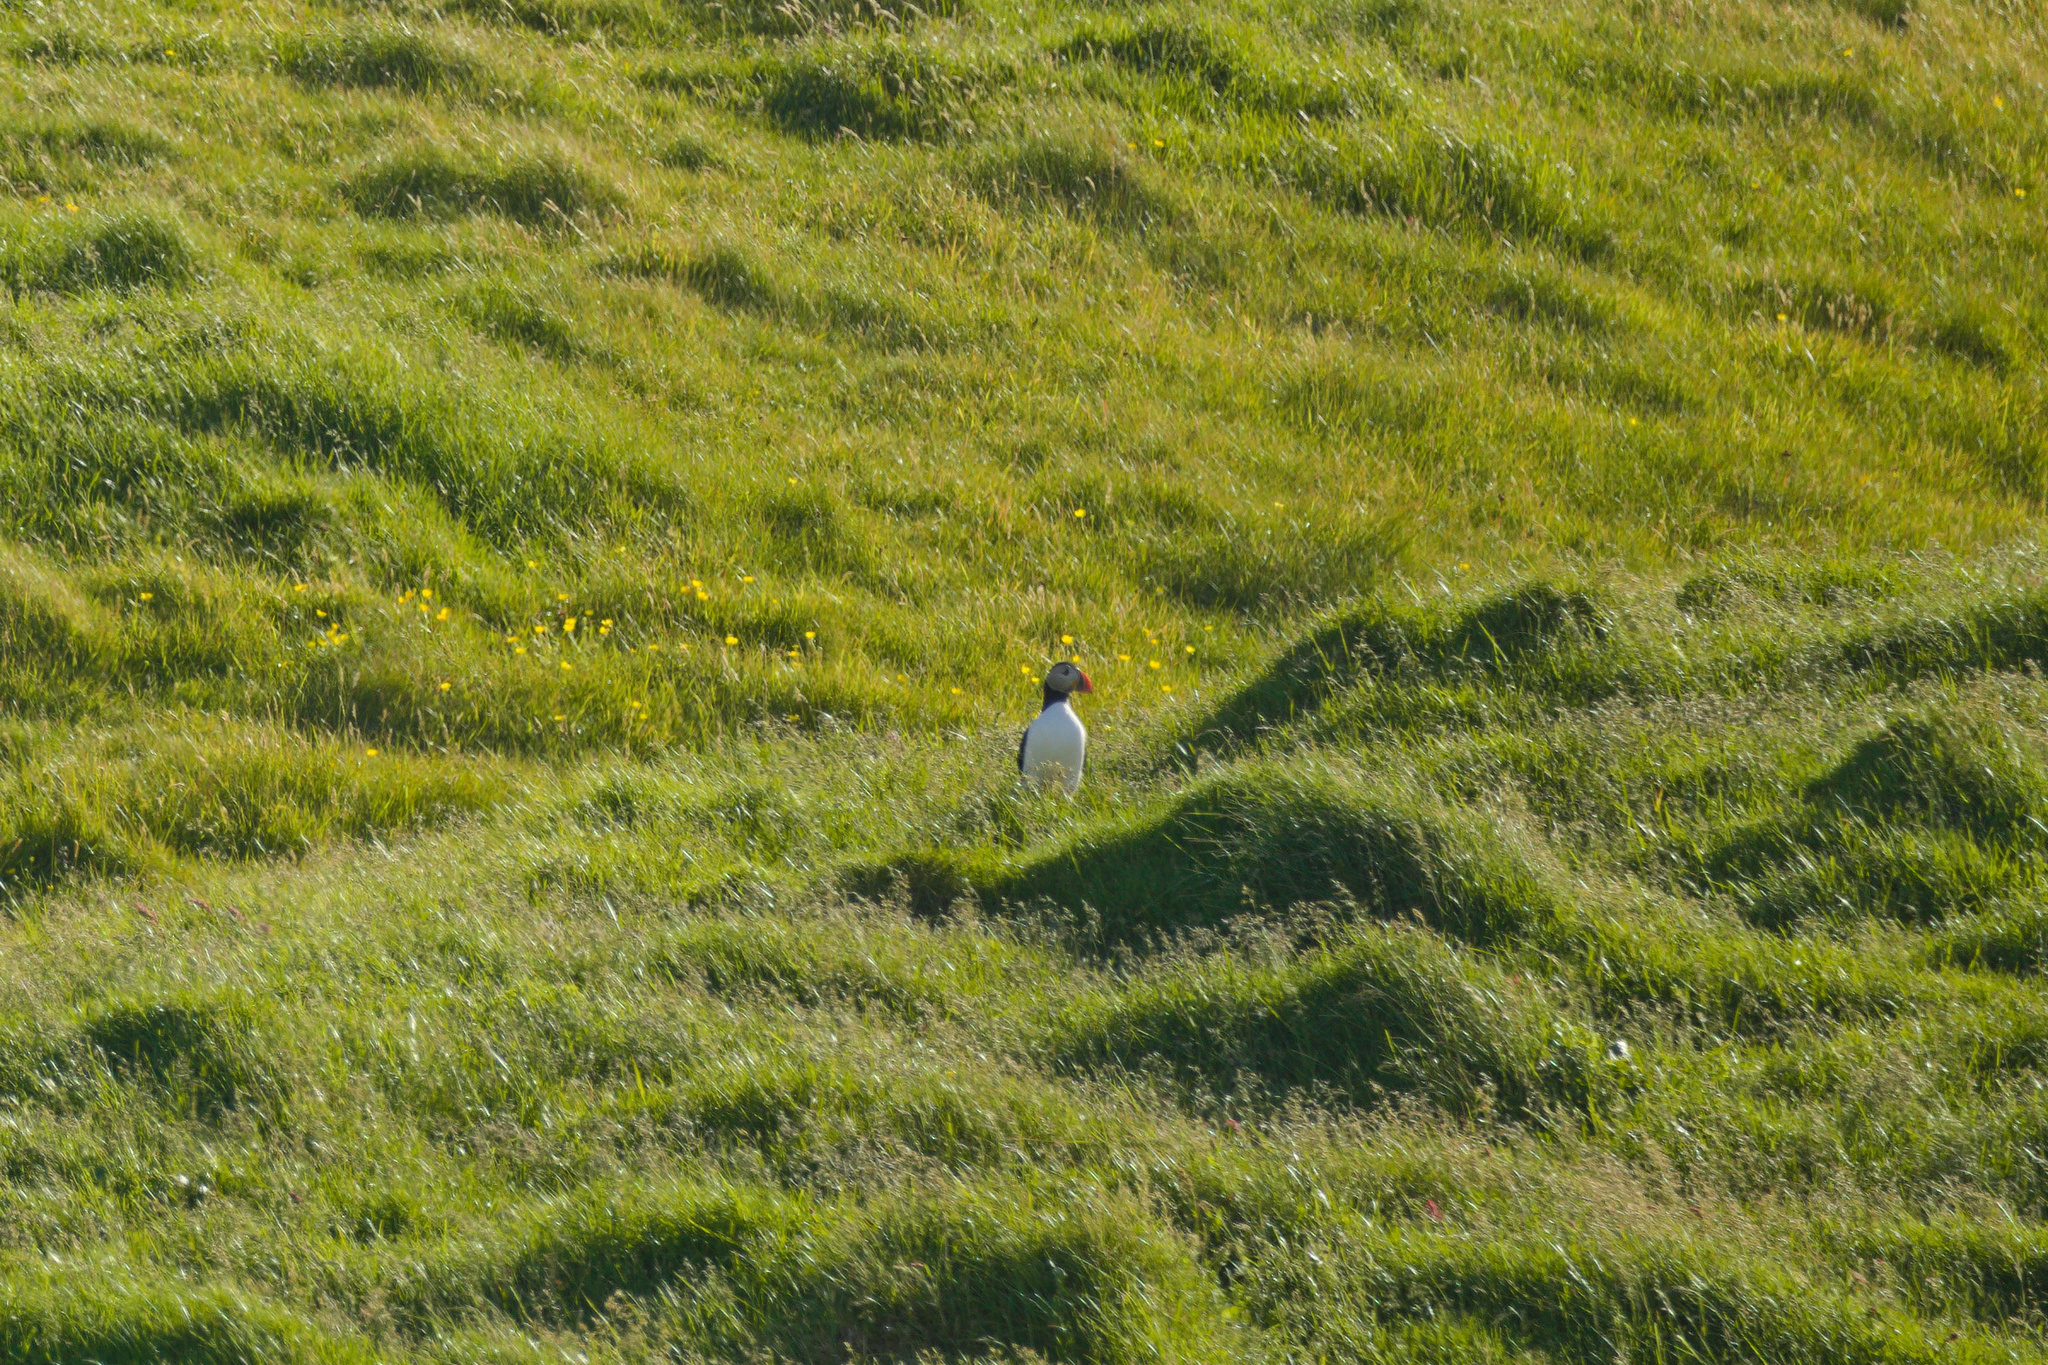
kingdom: Animalia
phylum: Chordata
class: Aves
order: Charadriiformes
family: Alcidae
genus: Fratercula
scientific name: Fratercula arctica
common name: Atlantic puffin
